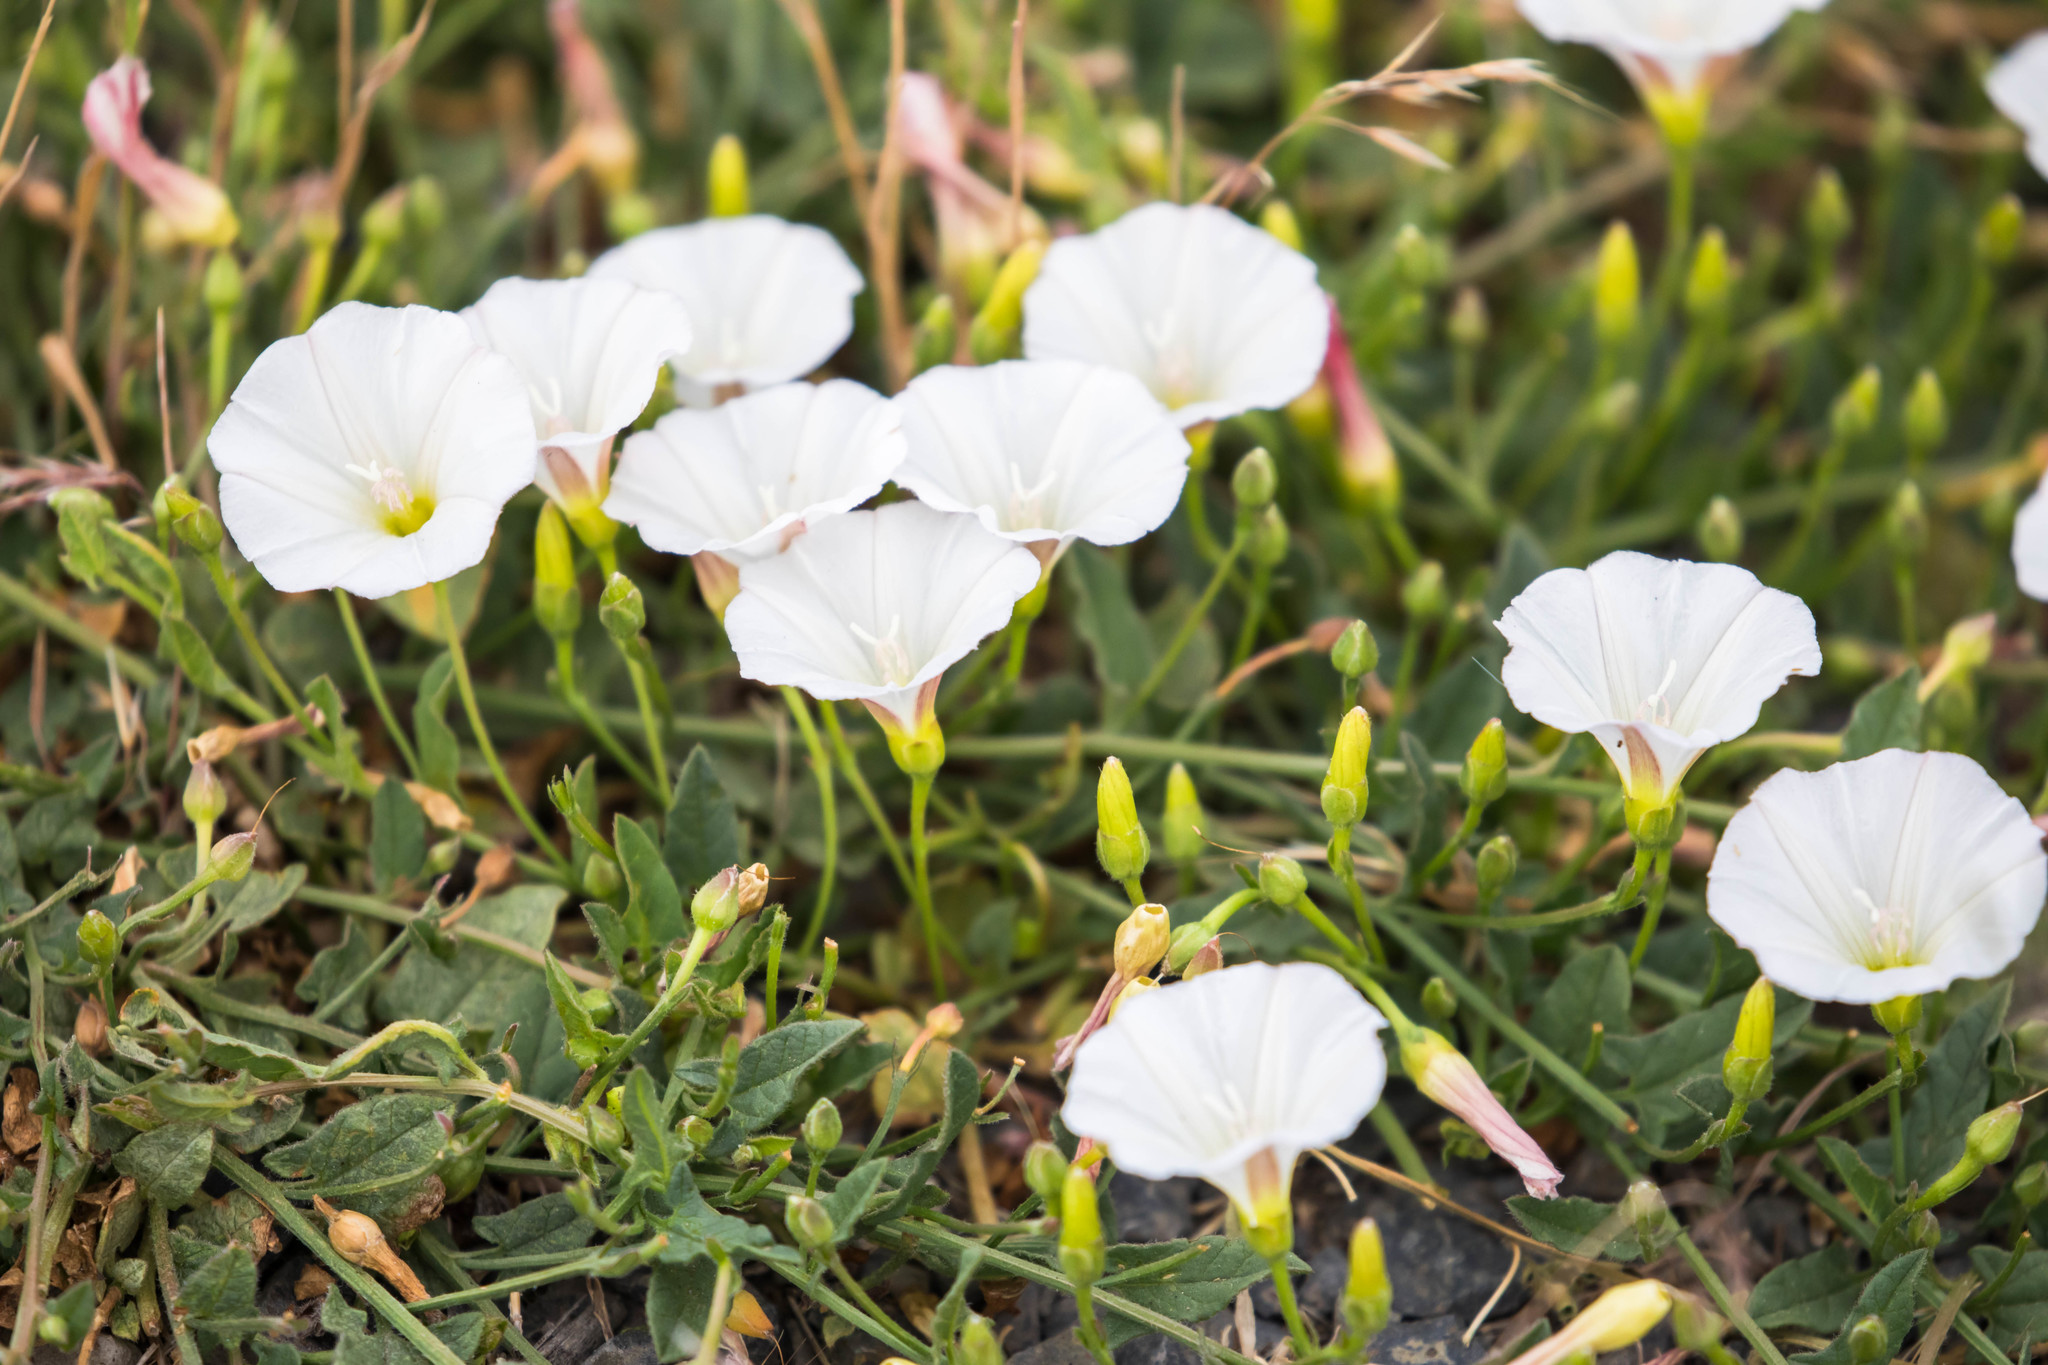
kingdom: Plantae
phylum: Tracheophyta
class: Magnoliopsida
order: Solanales
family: Convolvulaceae
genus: Convolvulus
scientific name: Convolvulus arvensis
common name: Field bindweed
